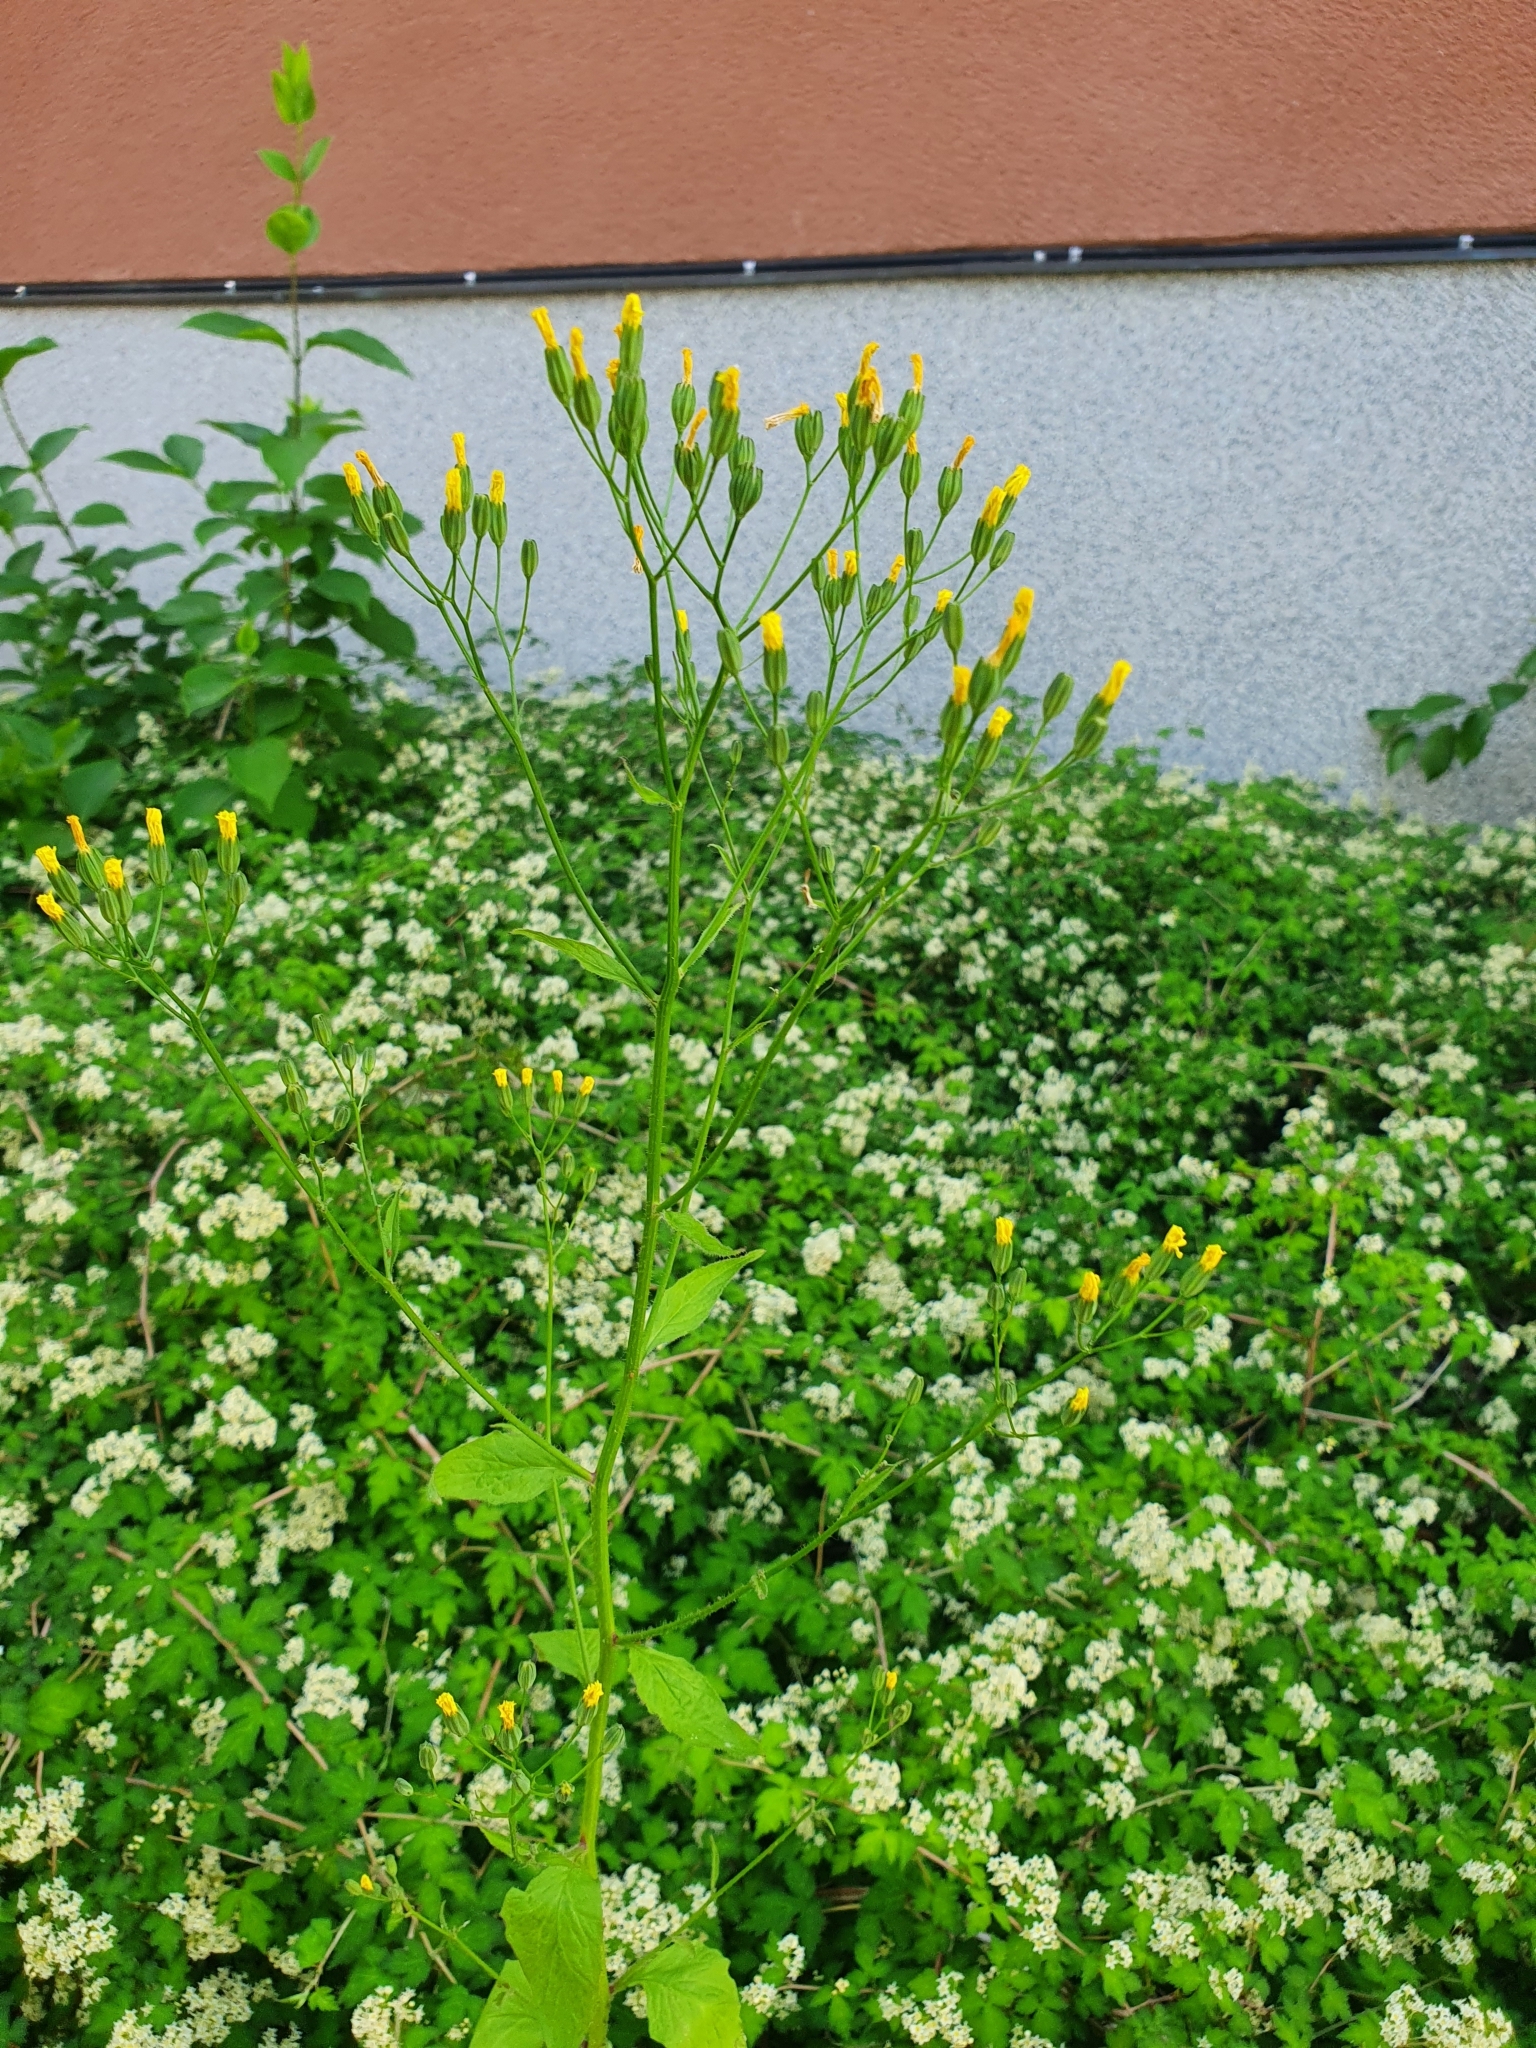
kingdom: Plantae
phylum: Tracheophyta
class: Magnoliopsida
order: Asterales
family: Asteraceae
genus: Lapsana
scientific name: Lapsana communis
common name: Nipplewort
